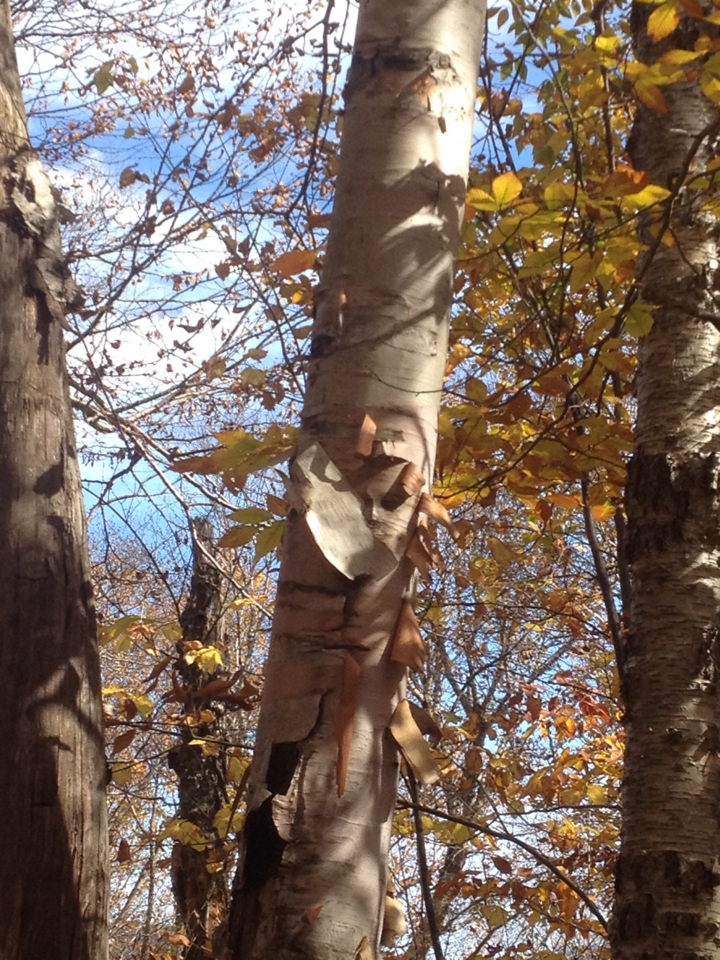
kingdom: Plantae
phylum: Tracheophyta
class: Magnoliopsida
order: Fagales
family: Betulaceae
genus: Betula
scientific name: Betula cordifolia
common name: Mountain white birch
